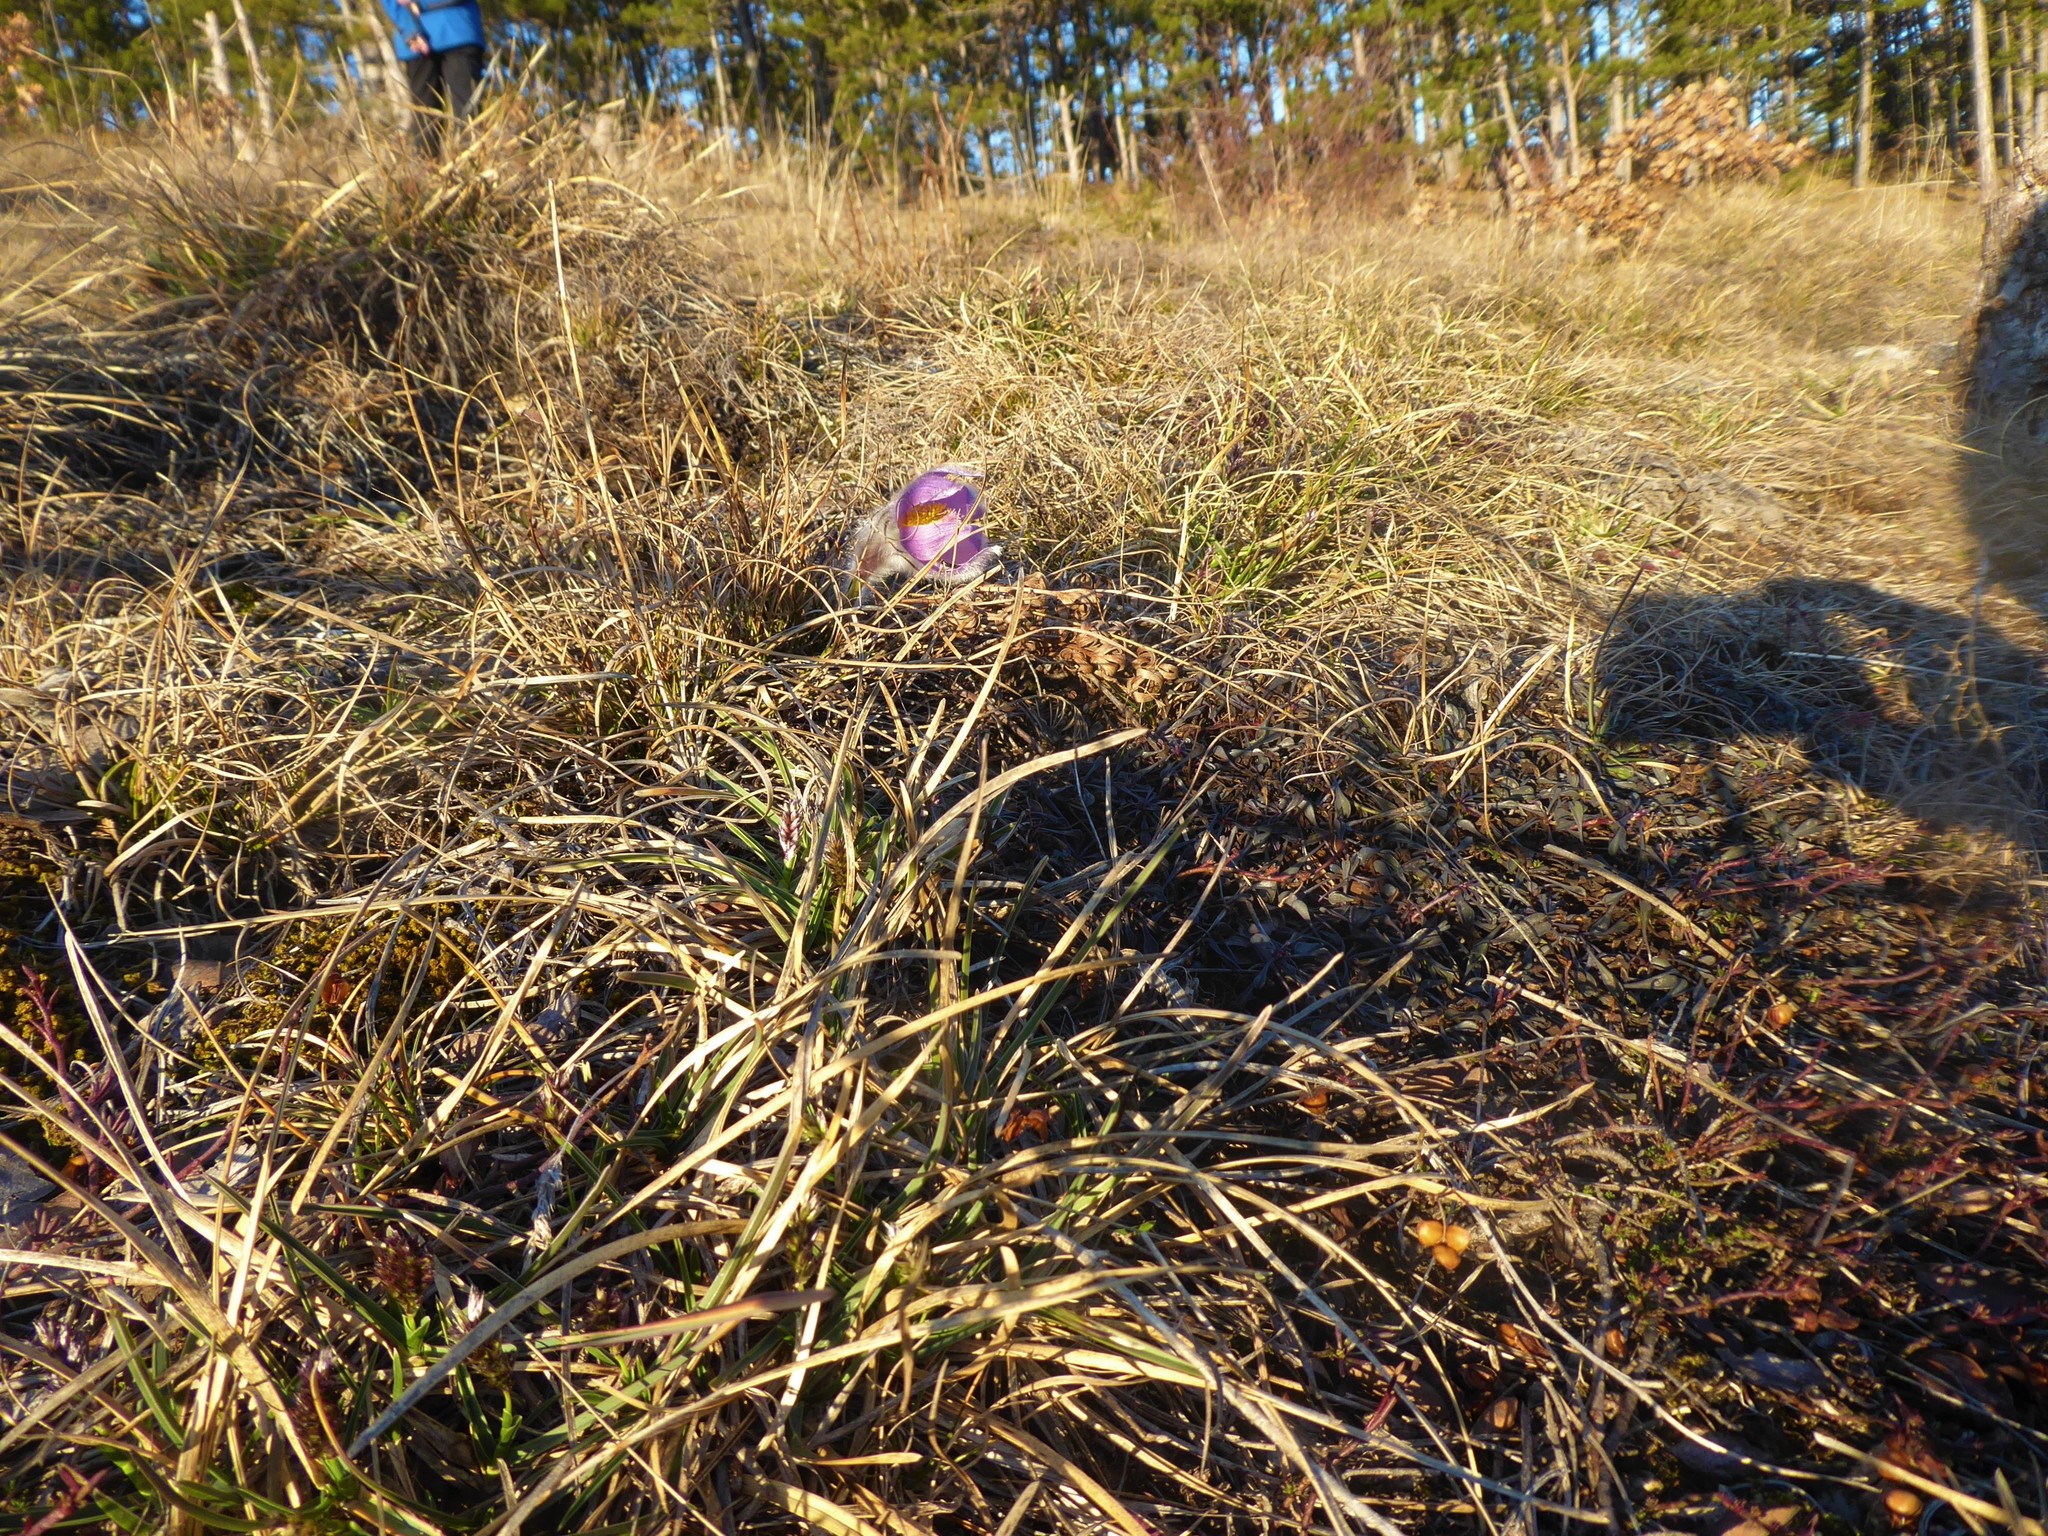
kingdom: Plantae
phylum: Tracheophyta
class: Magnoliopsida
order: Ranunculales
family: Ranunculaceae
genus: Pulsatilla
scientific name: Pulsatilla grandis
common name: Greater pasque flower
